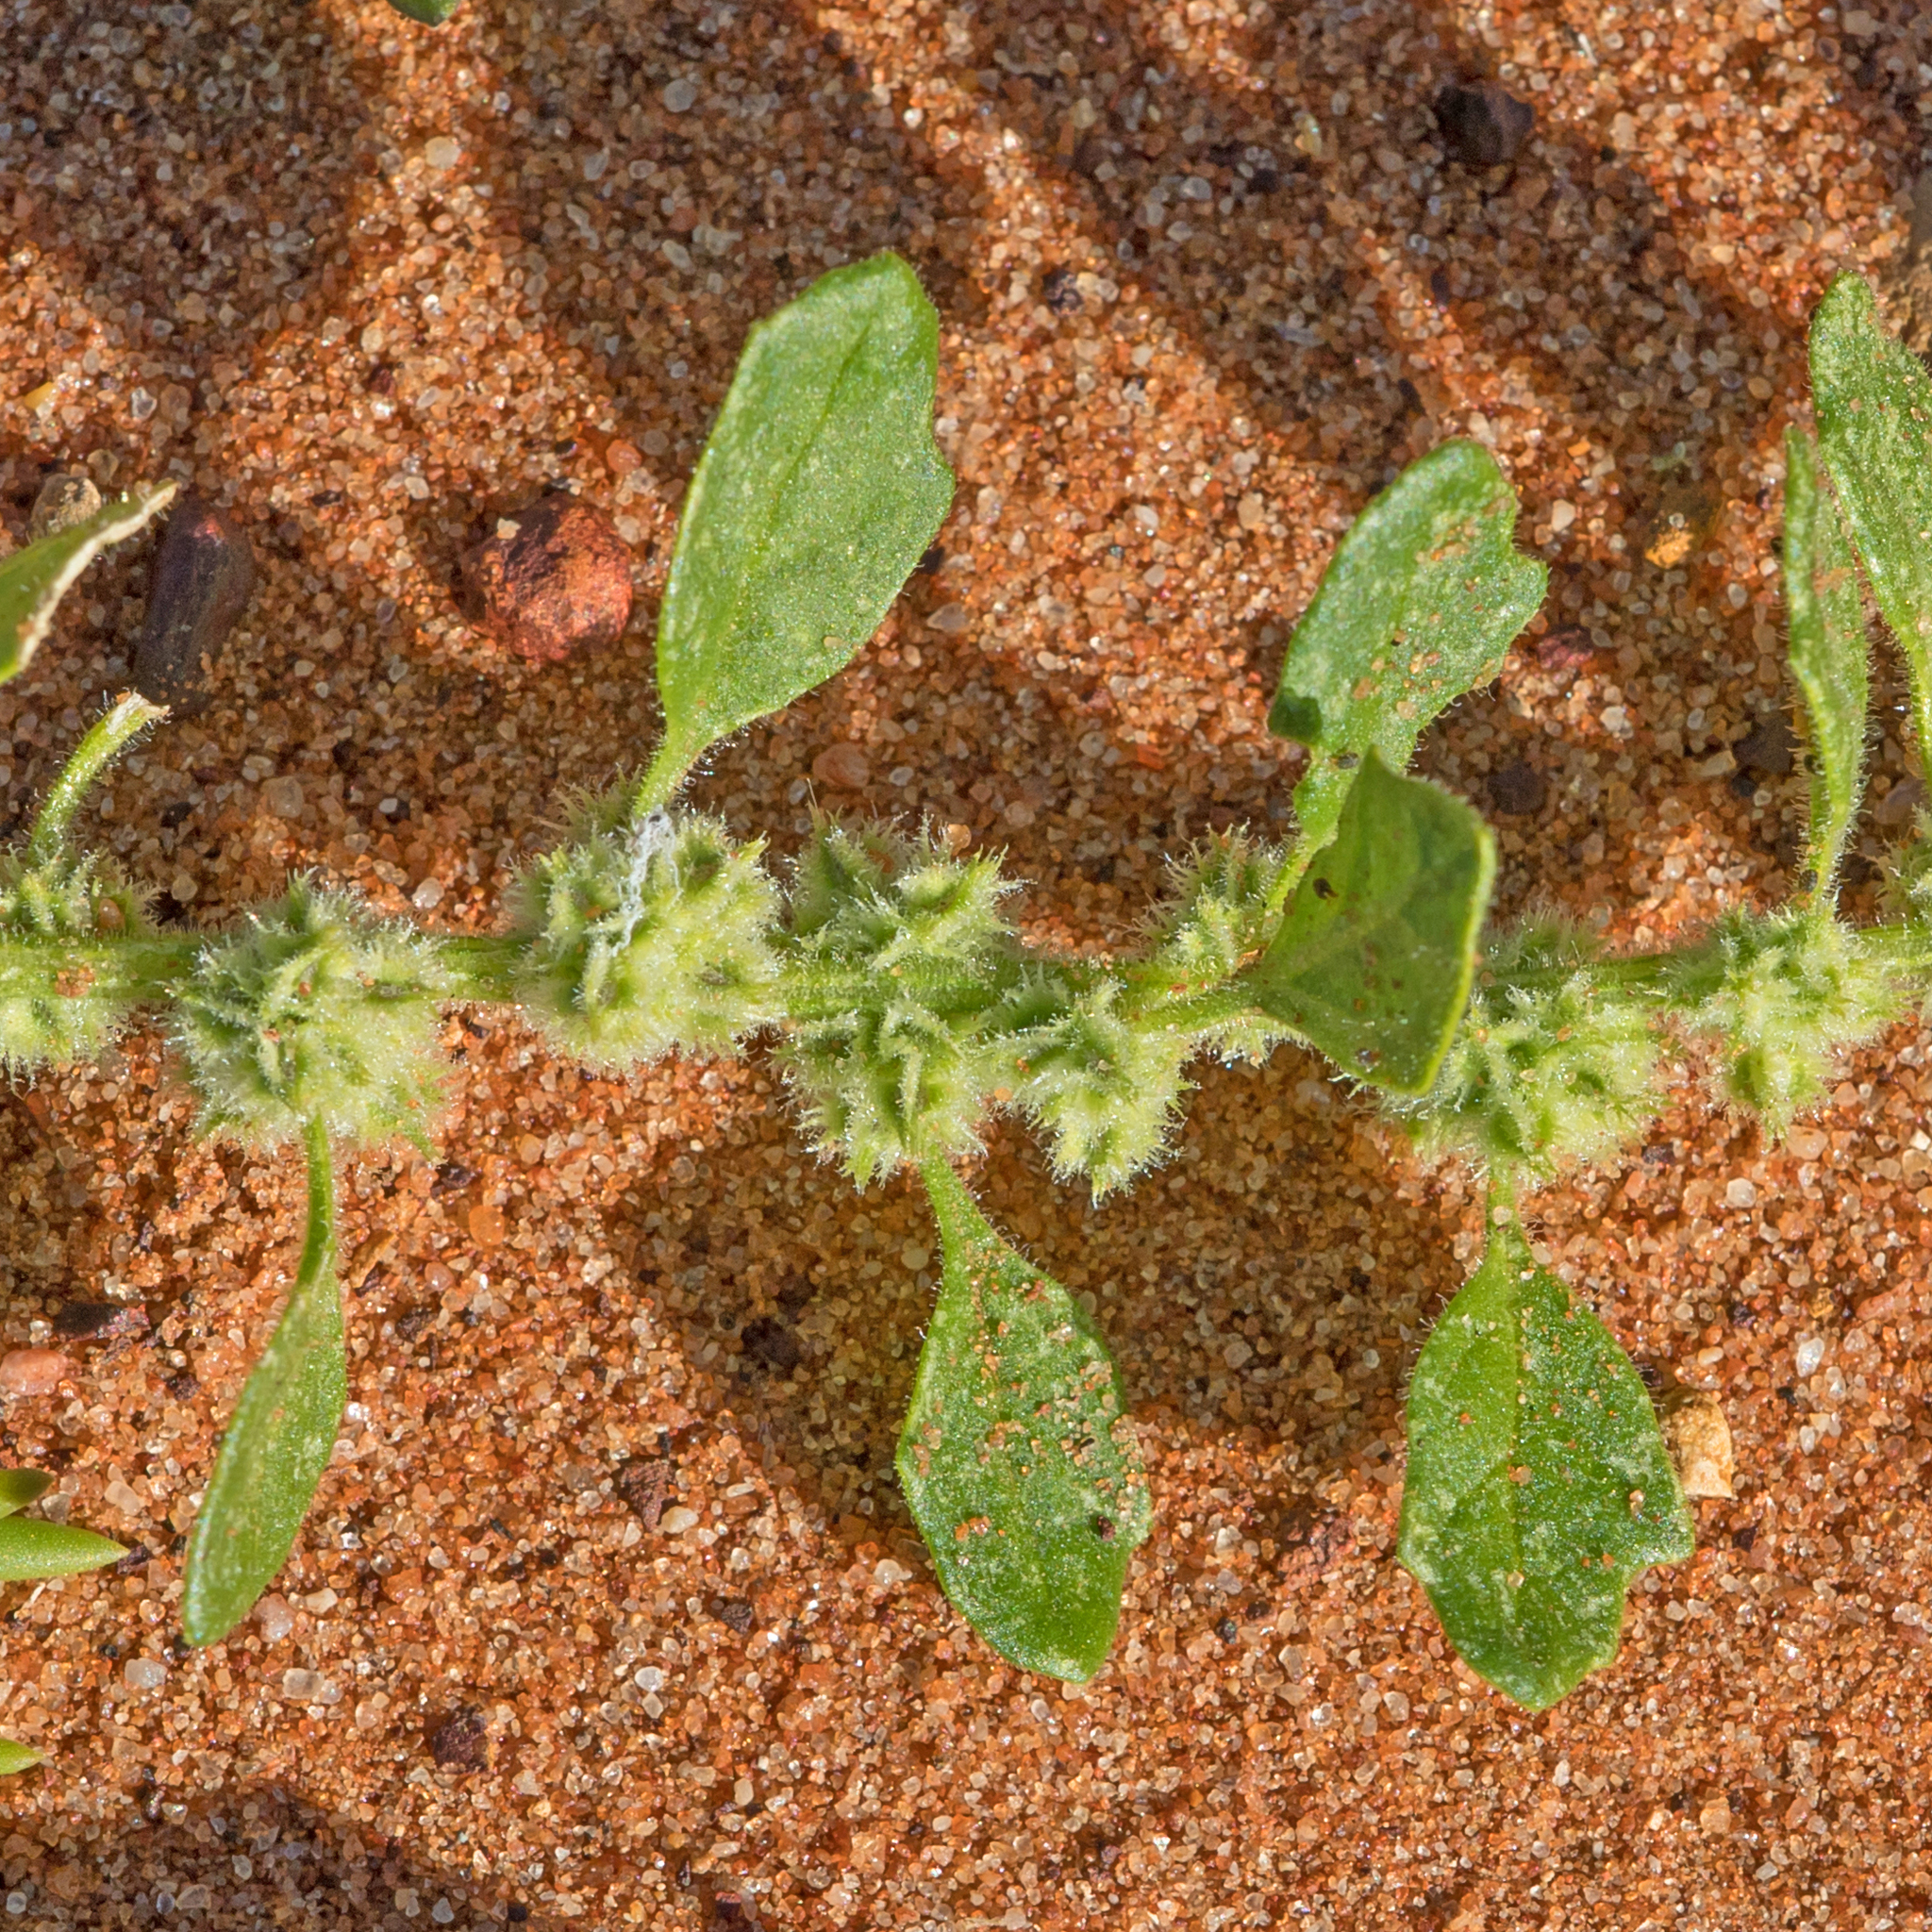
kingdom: Plantae
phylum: Tracheophyta
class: Magnoliopsida
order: Caryophyllales
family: Amaranthaceae
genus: Dysphania
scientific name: Dysphania cristata
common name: Crested goosefoot
